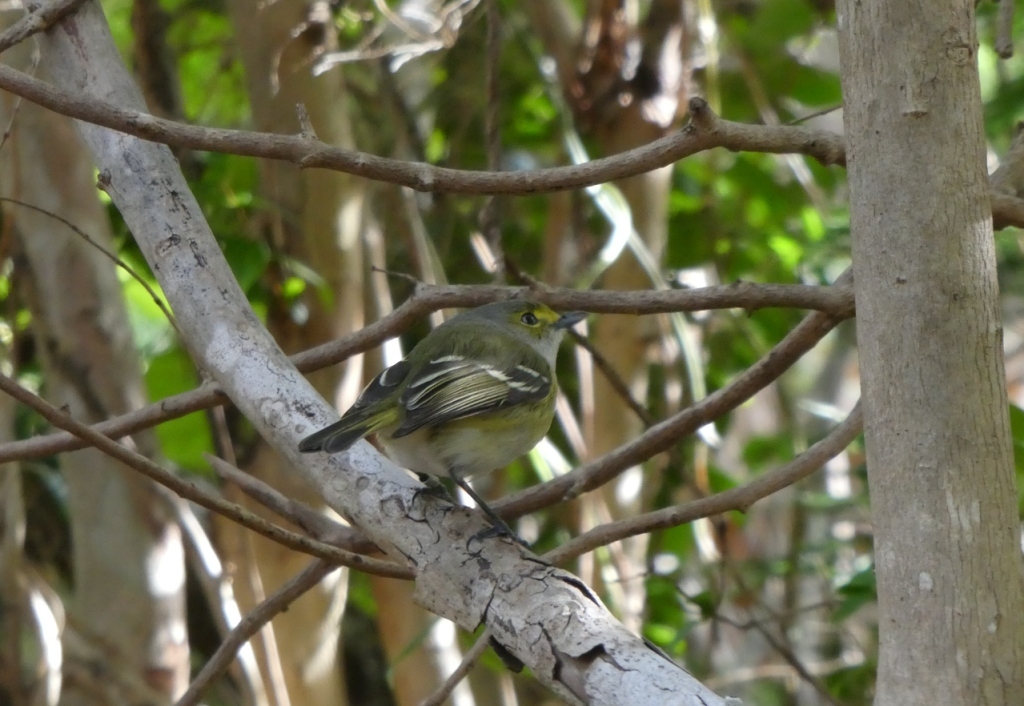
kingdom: Animalia
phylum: Chordata
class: Aves
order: Passeriformes
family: Vireonidae
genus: Vireo
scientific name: Vireo griseus
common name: White-eyed vireo
